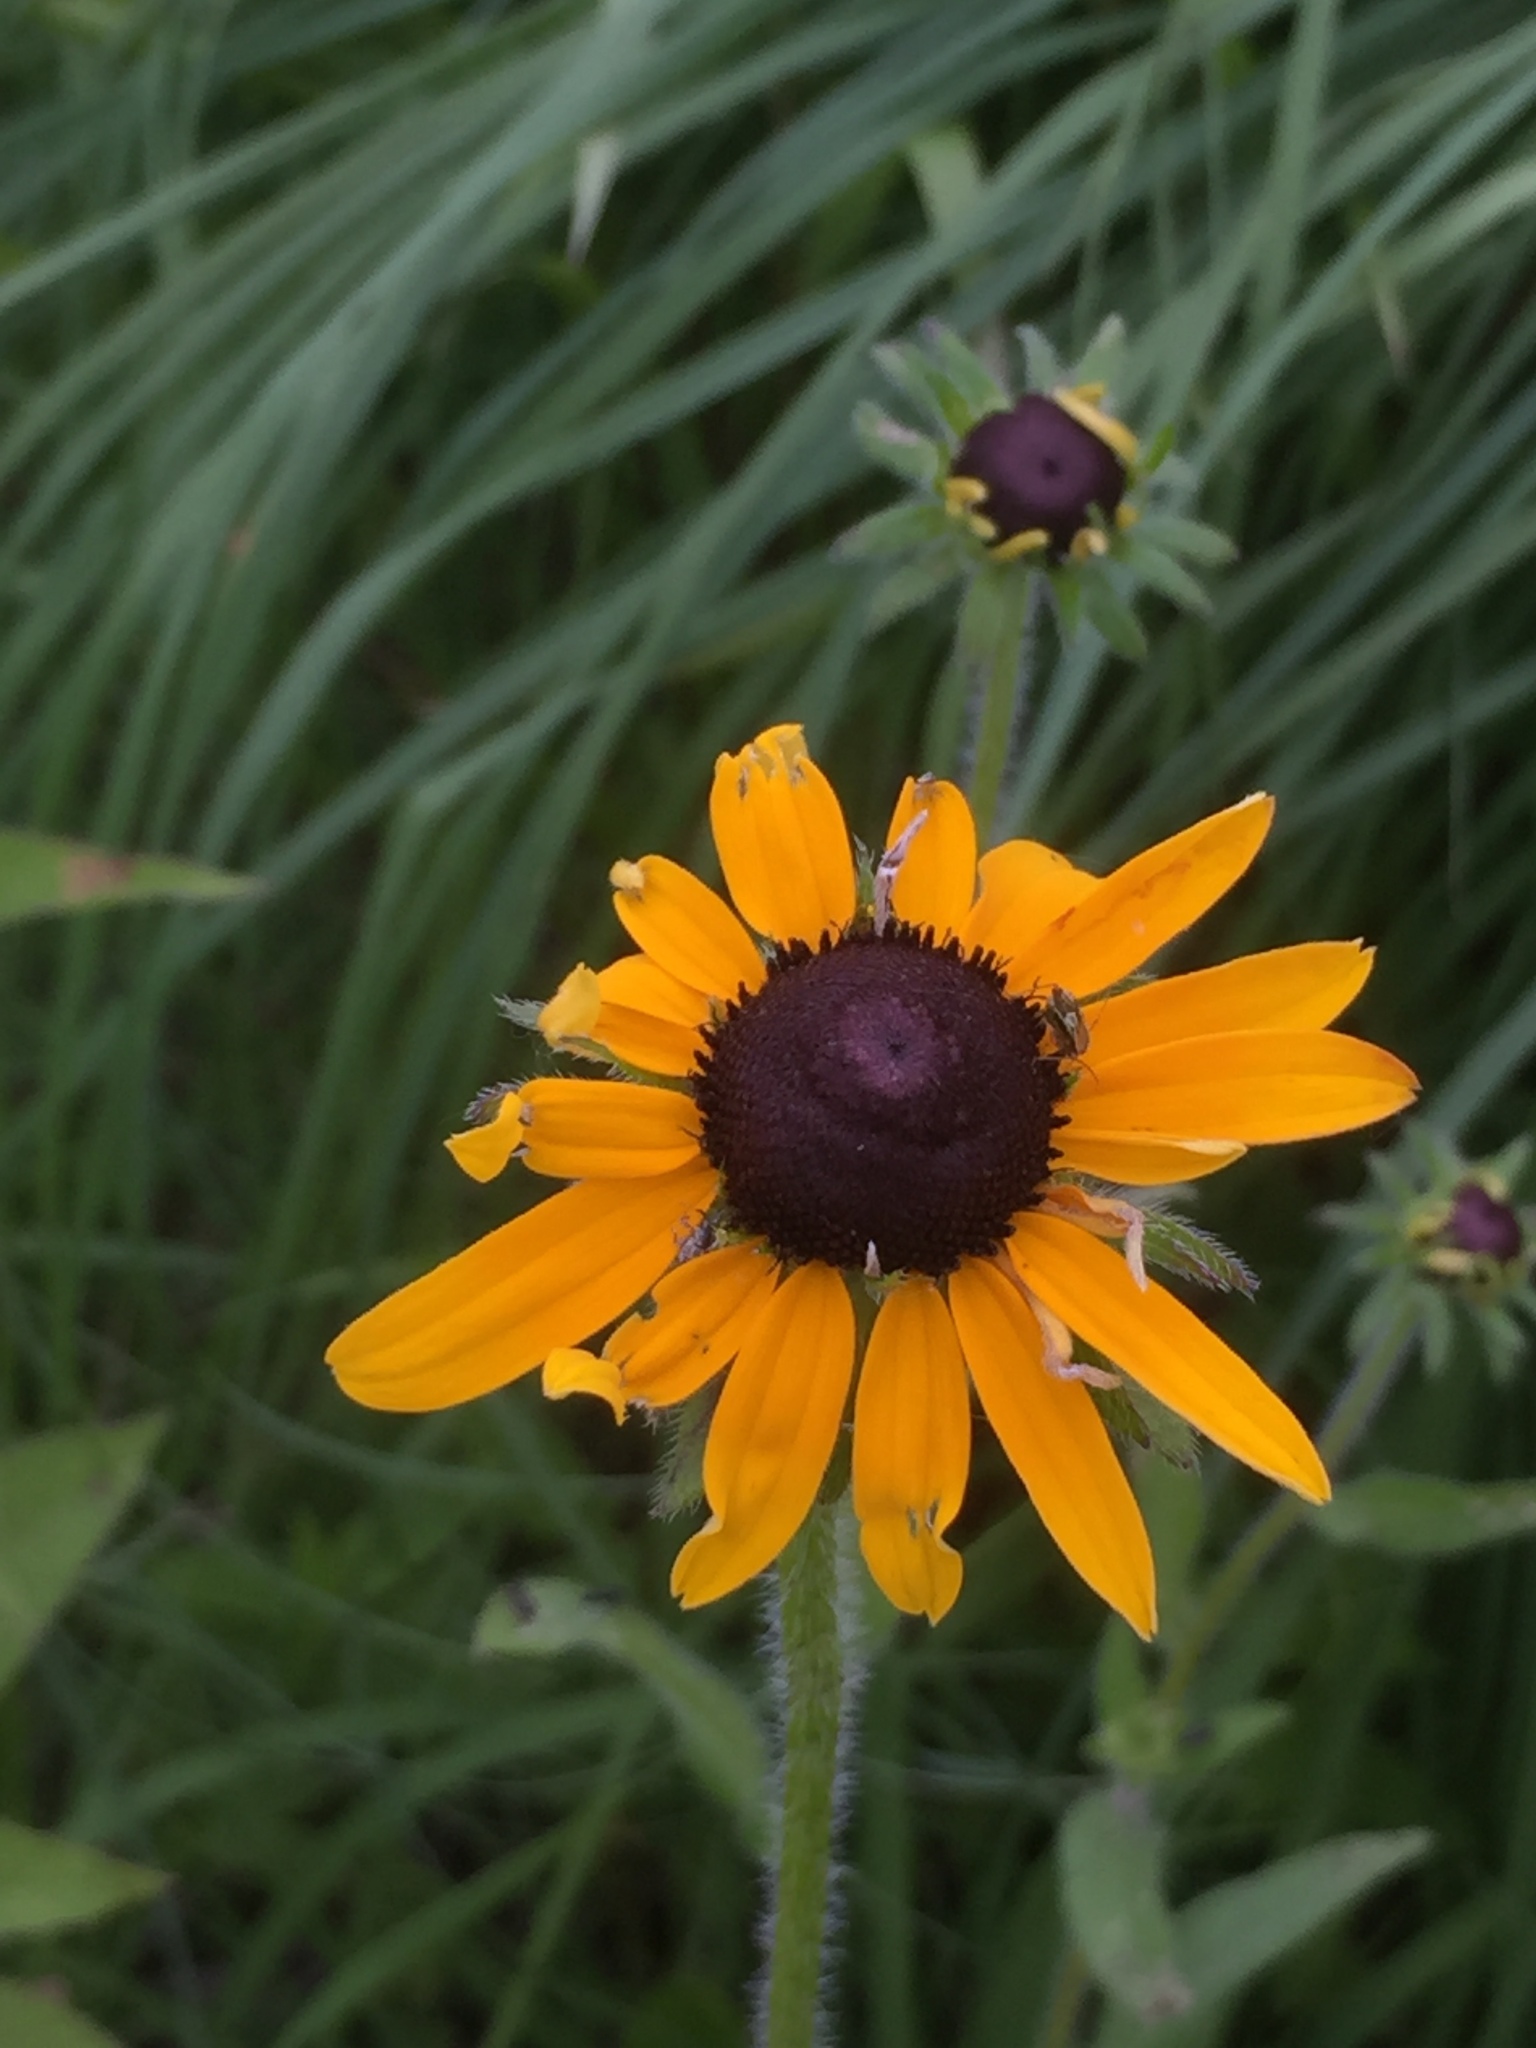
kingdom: Plantae
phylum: Tracheophyta
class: Magnoliopsida
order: Asterales
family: Asteraceae
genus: Rudbeckia
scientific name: Rudbeckia hirta
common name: Black-eyed-susan
